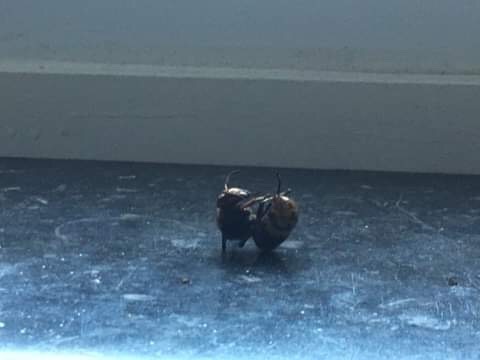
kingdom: Animalia
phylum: Arthropoda
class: Insecta
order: Hymenoptera
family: Vespidae
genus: Vespa
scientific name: Vespa crabro
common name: Hornet
